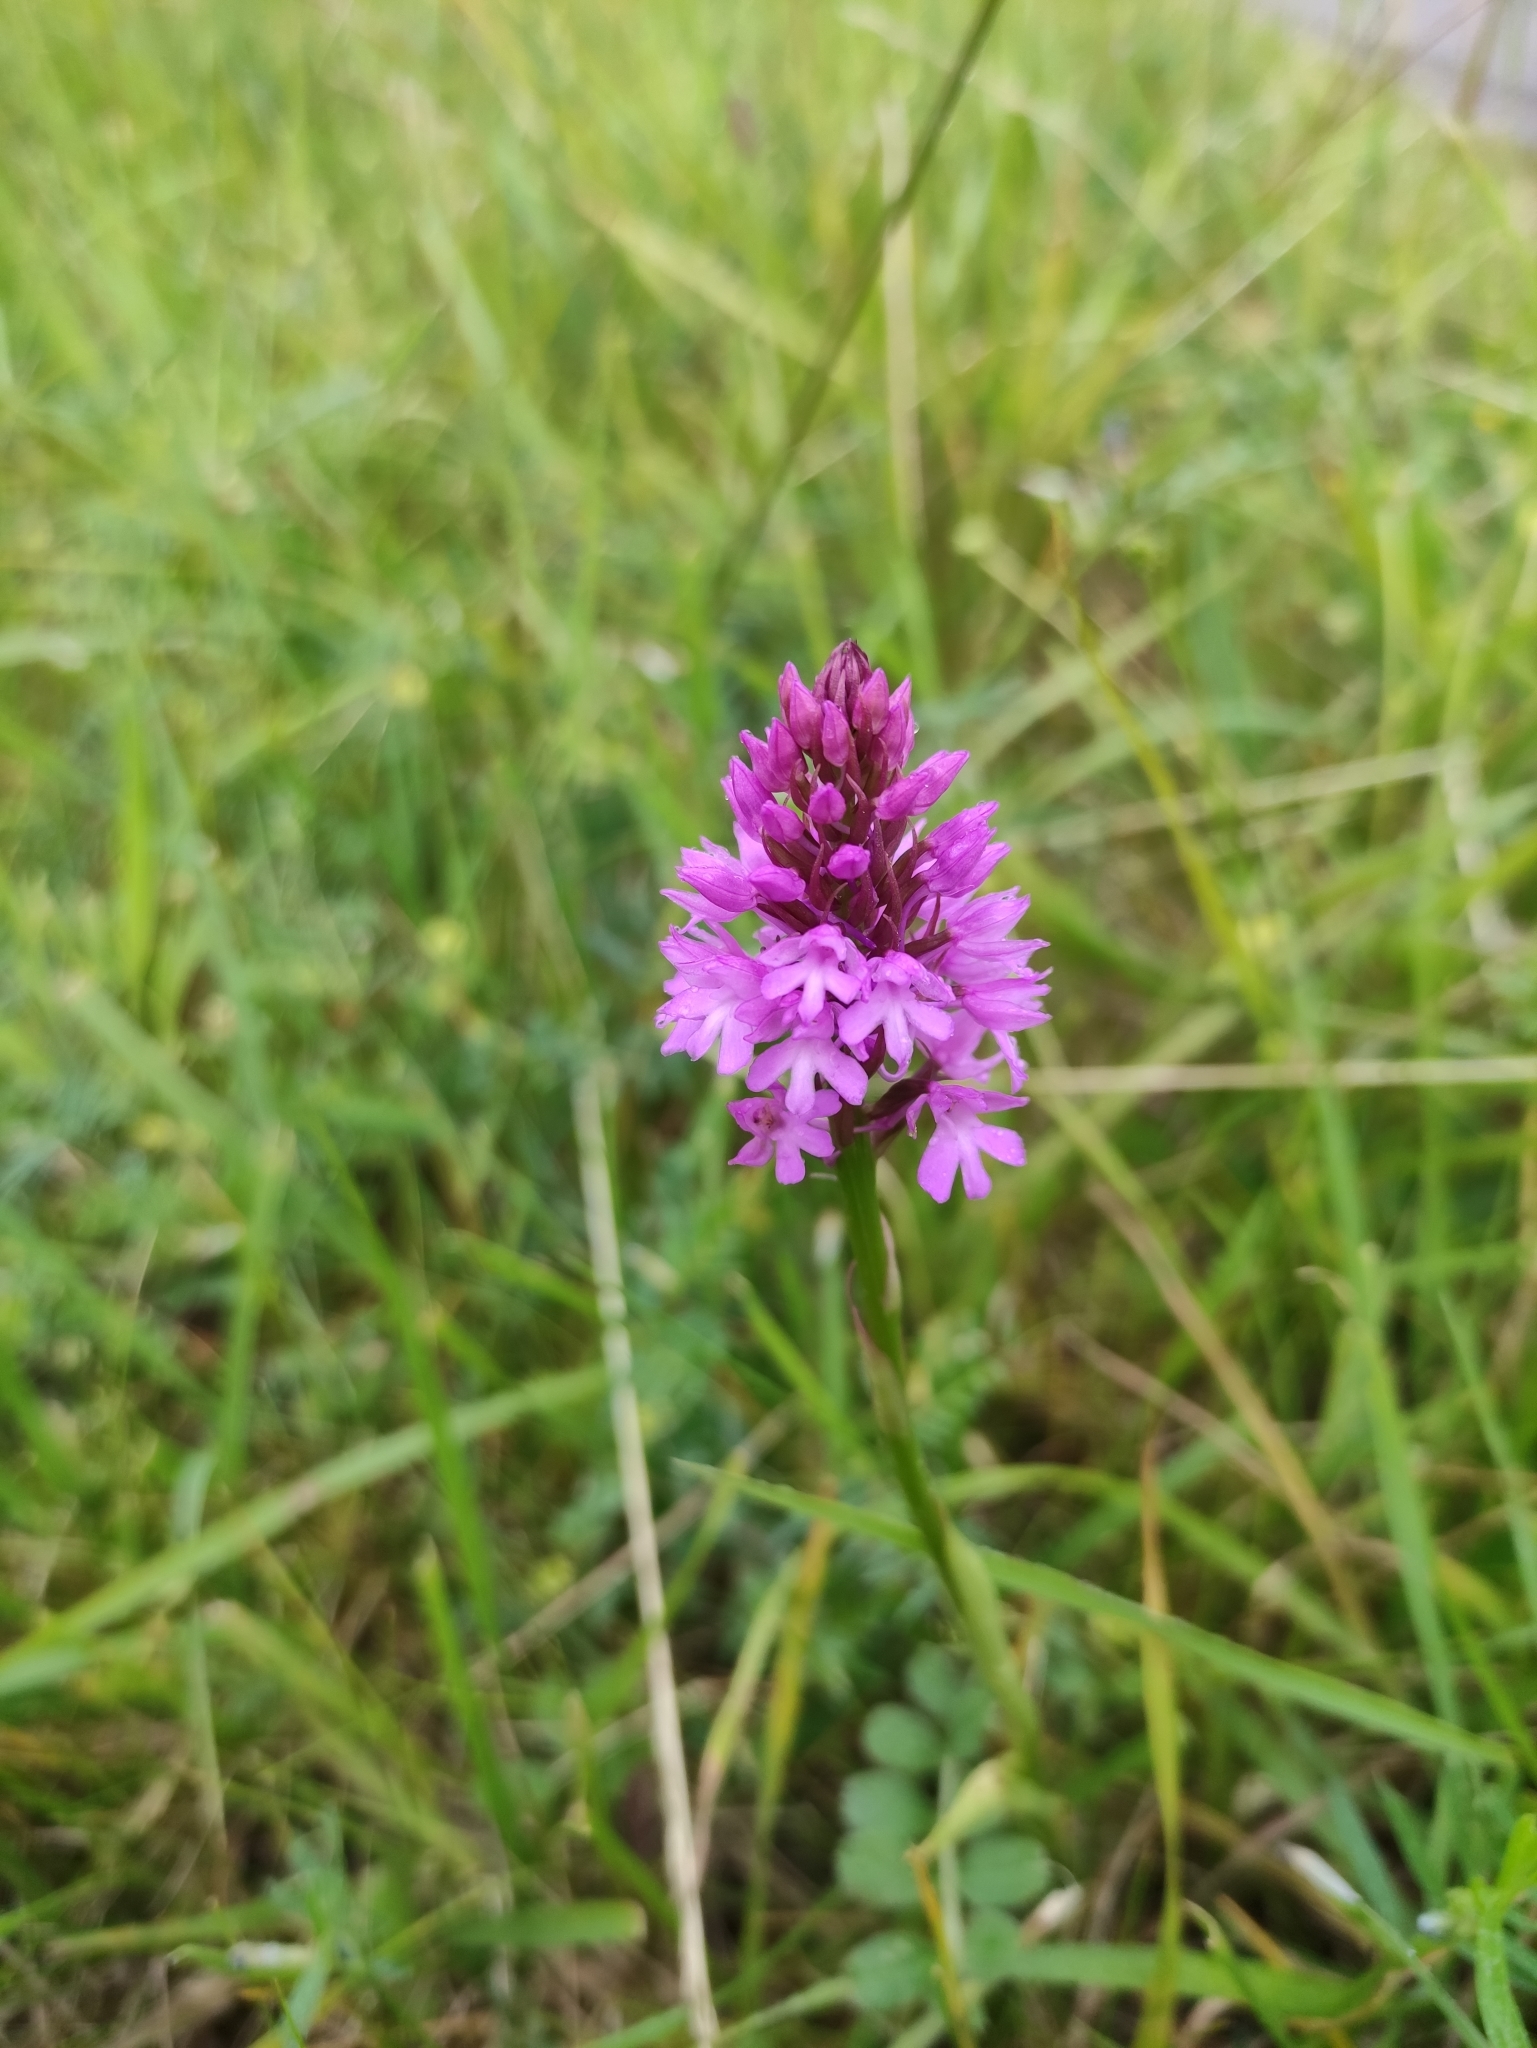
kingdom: Plantae
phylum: Tracheophyta
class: Liliopsida
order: Asparagales
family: Orchidaceae
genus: Anacamptis
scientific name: Anacamptis pyramidalis
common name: Pyramidal orchid
